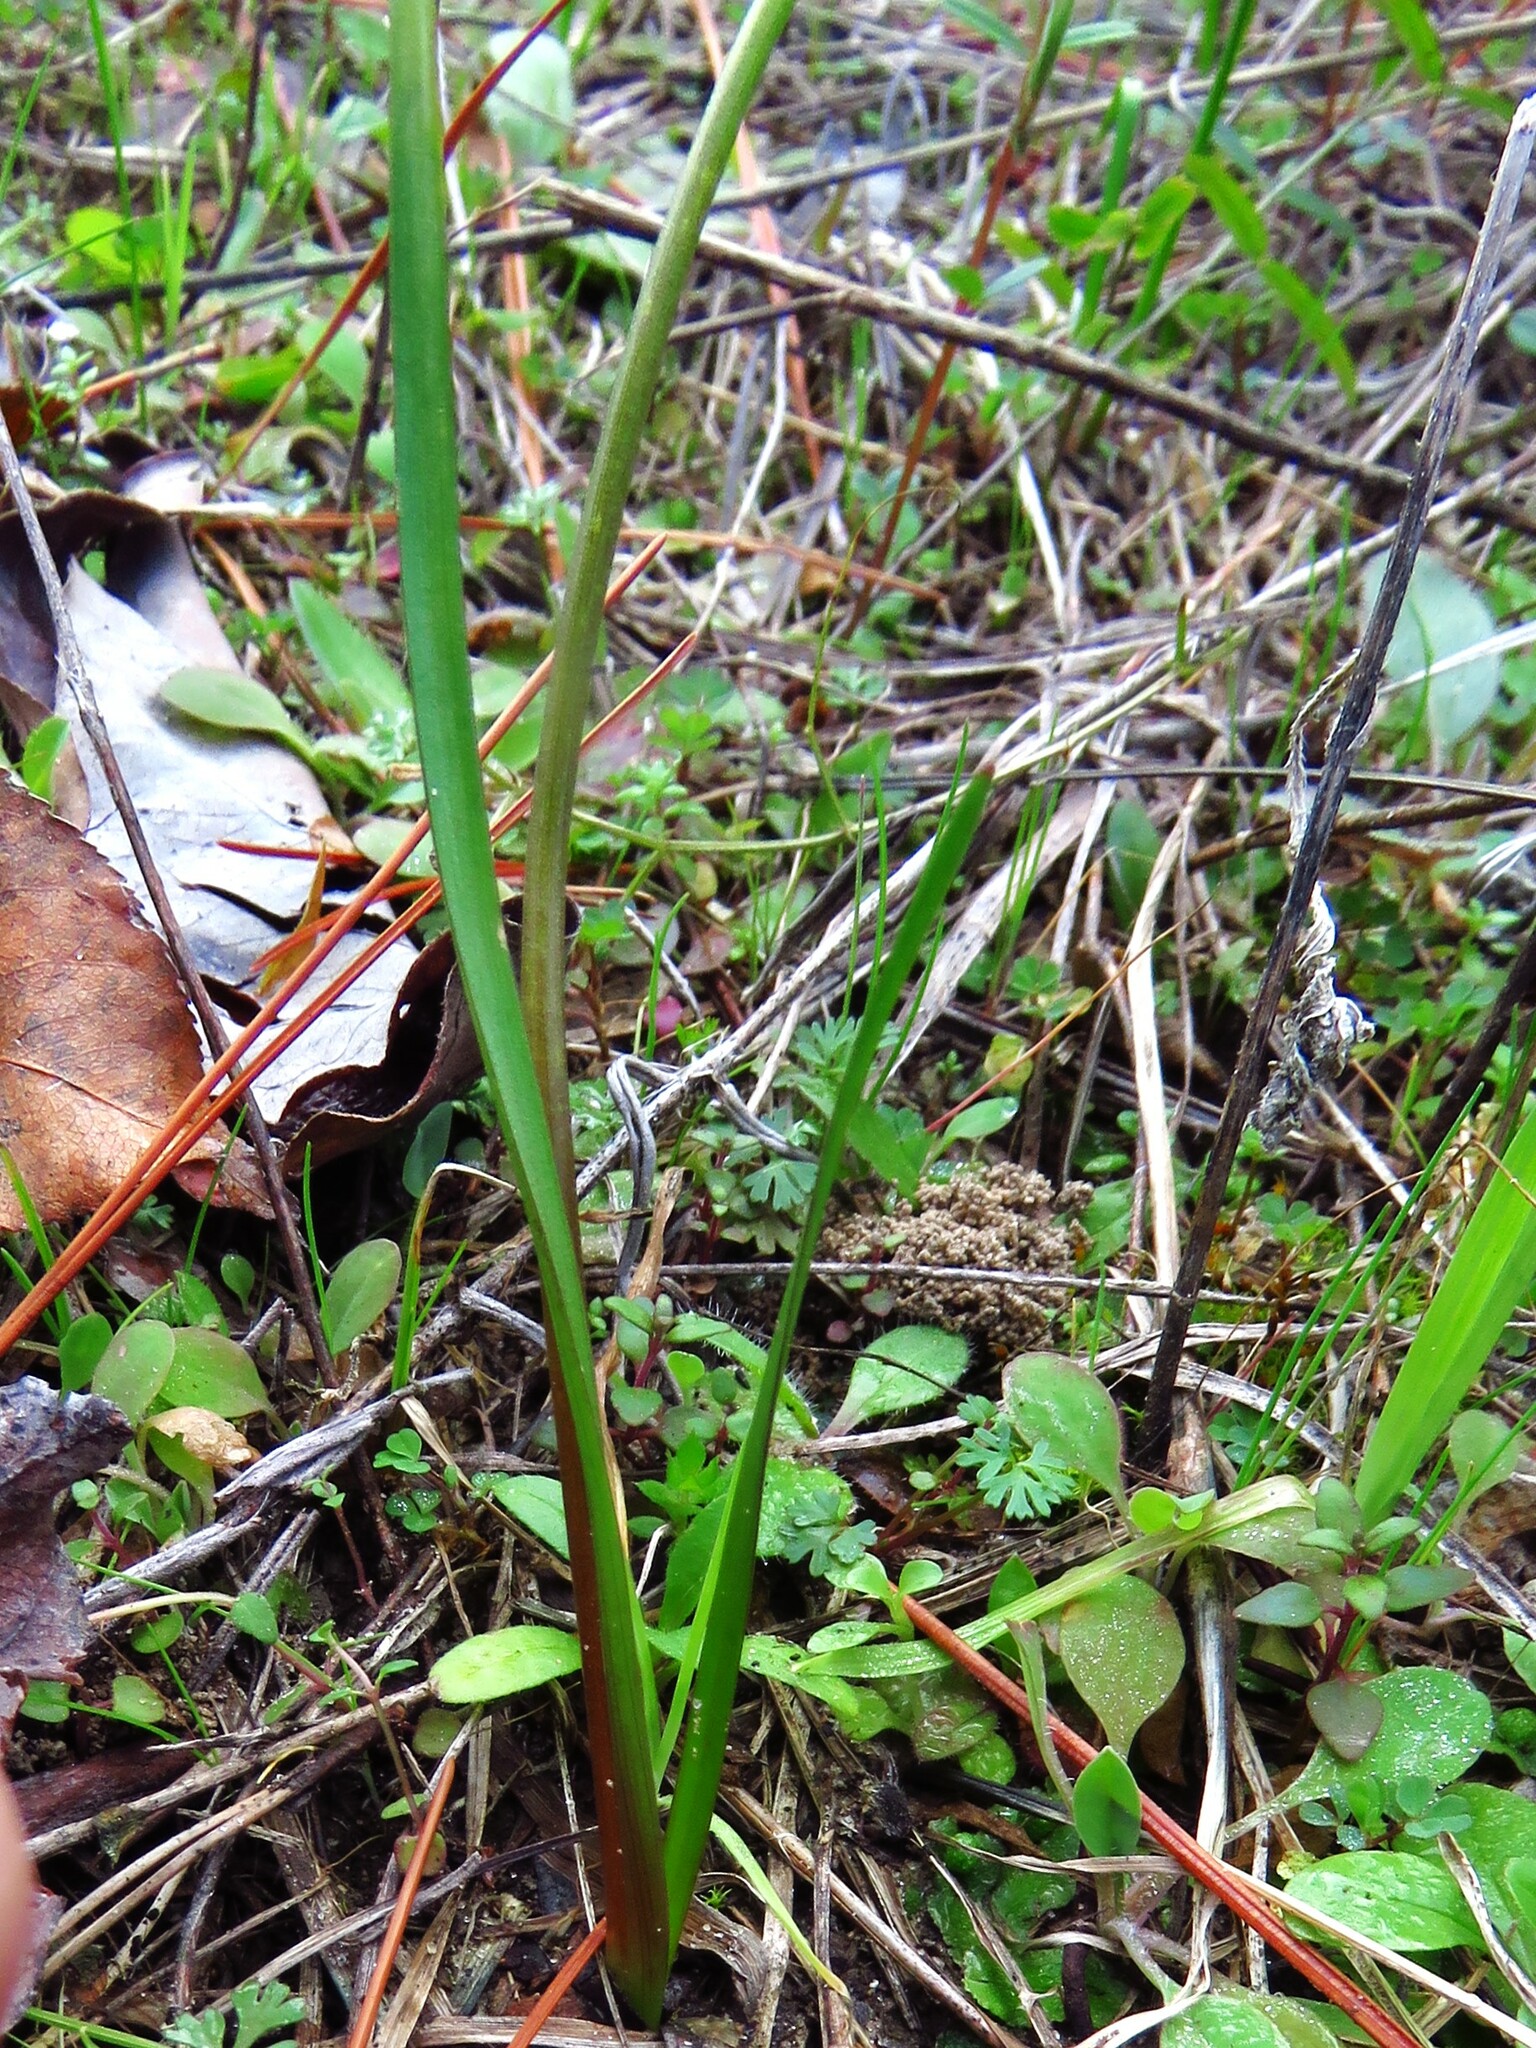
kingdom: Plantae
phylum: Tracheophyta
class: Liliopsida
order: Asparagales
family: Amaryllidaceae
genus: Nothoscordum
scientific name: Nothoscordum bivalve
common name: Crow-poison
